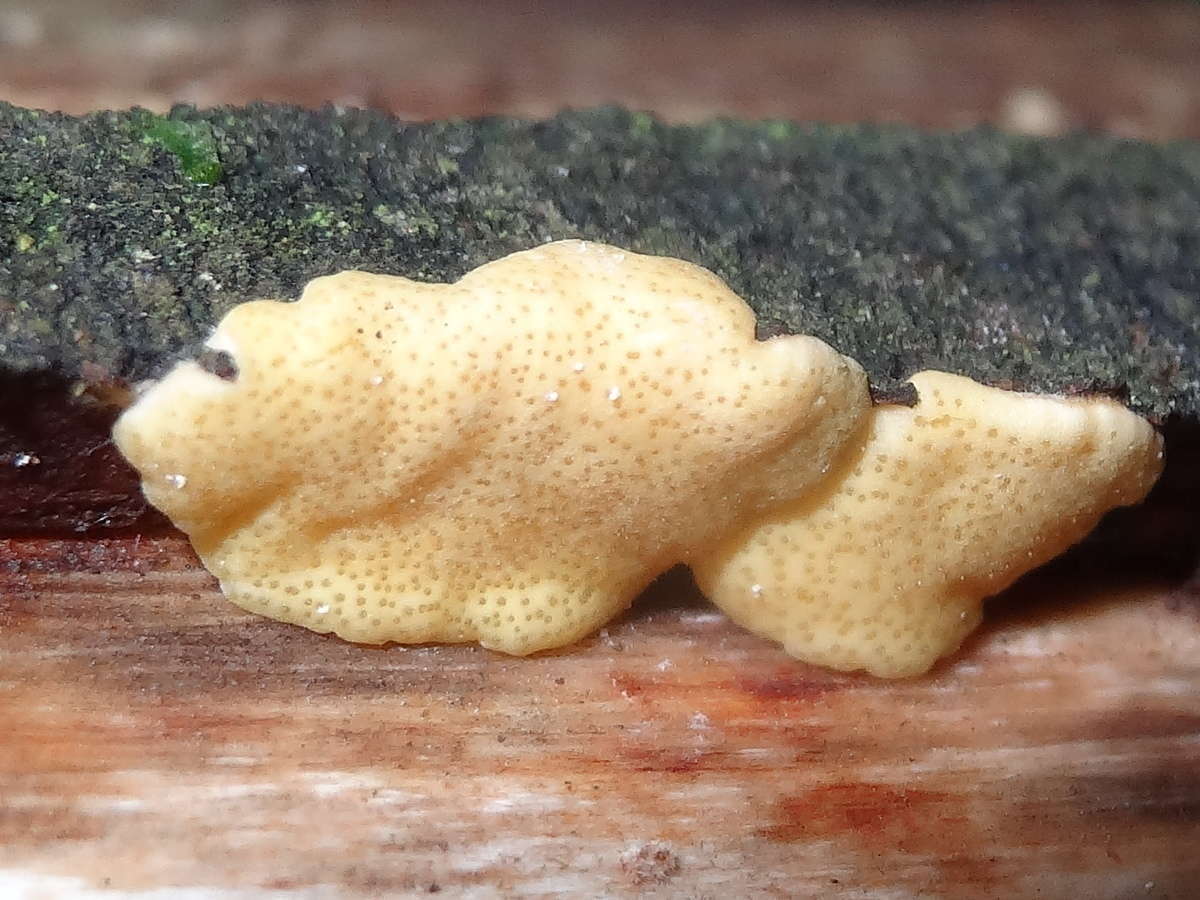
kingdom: Fungi
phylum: Ascomycota
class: Sordariomycetes
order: Hypocreales
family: Hypocreaceae
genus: Trichoderma
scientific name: Trichoderma victoriense
